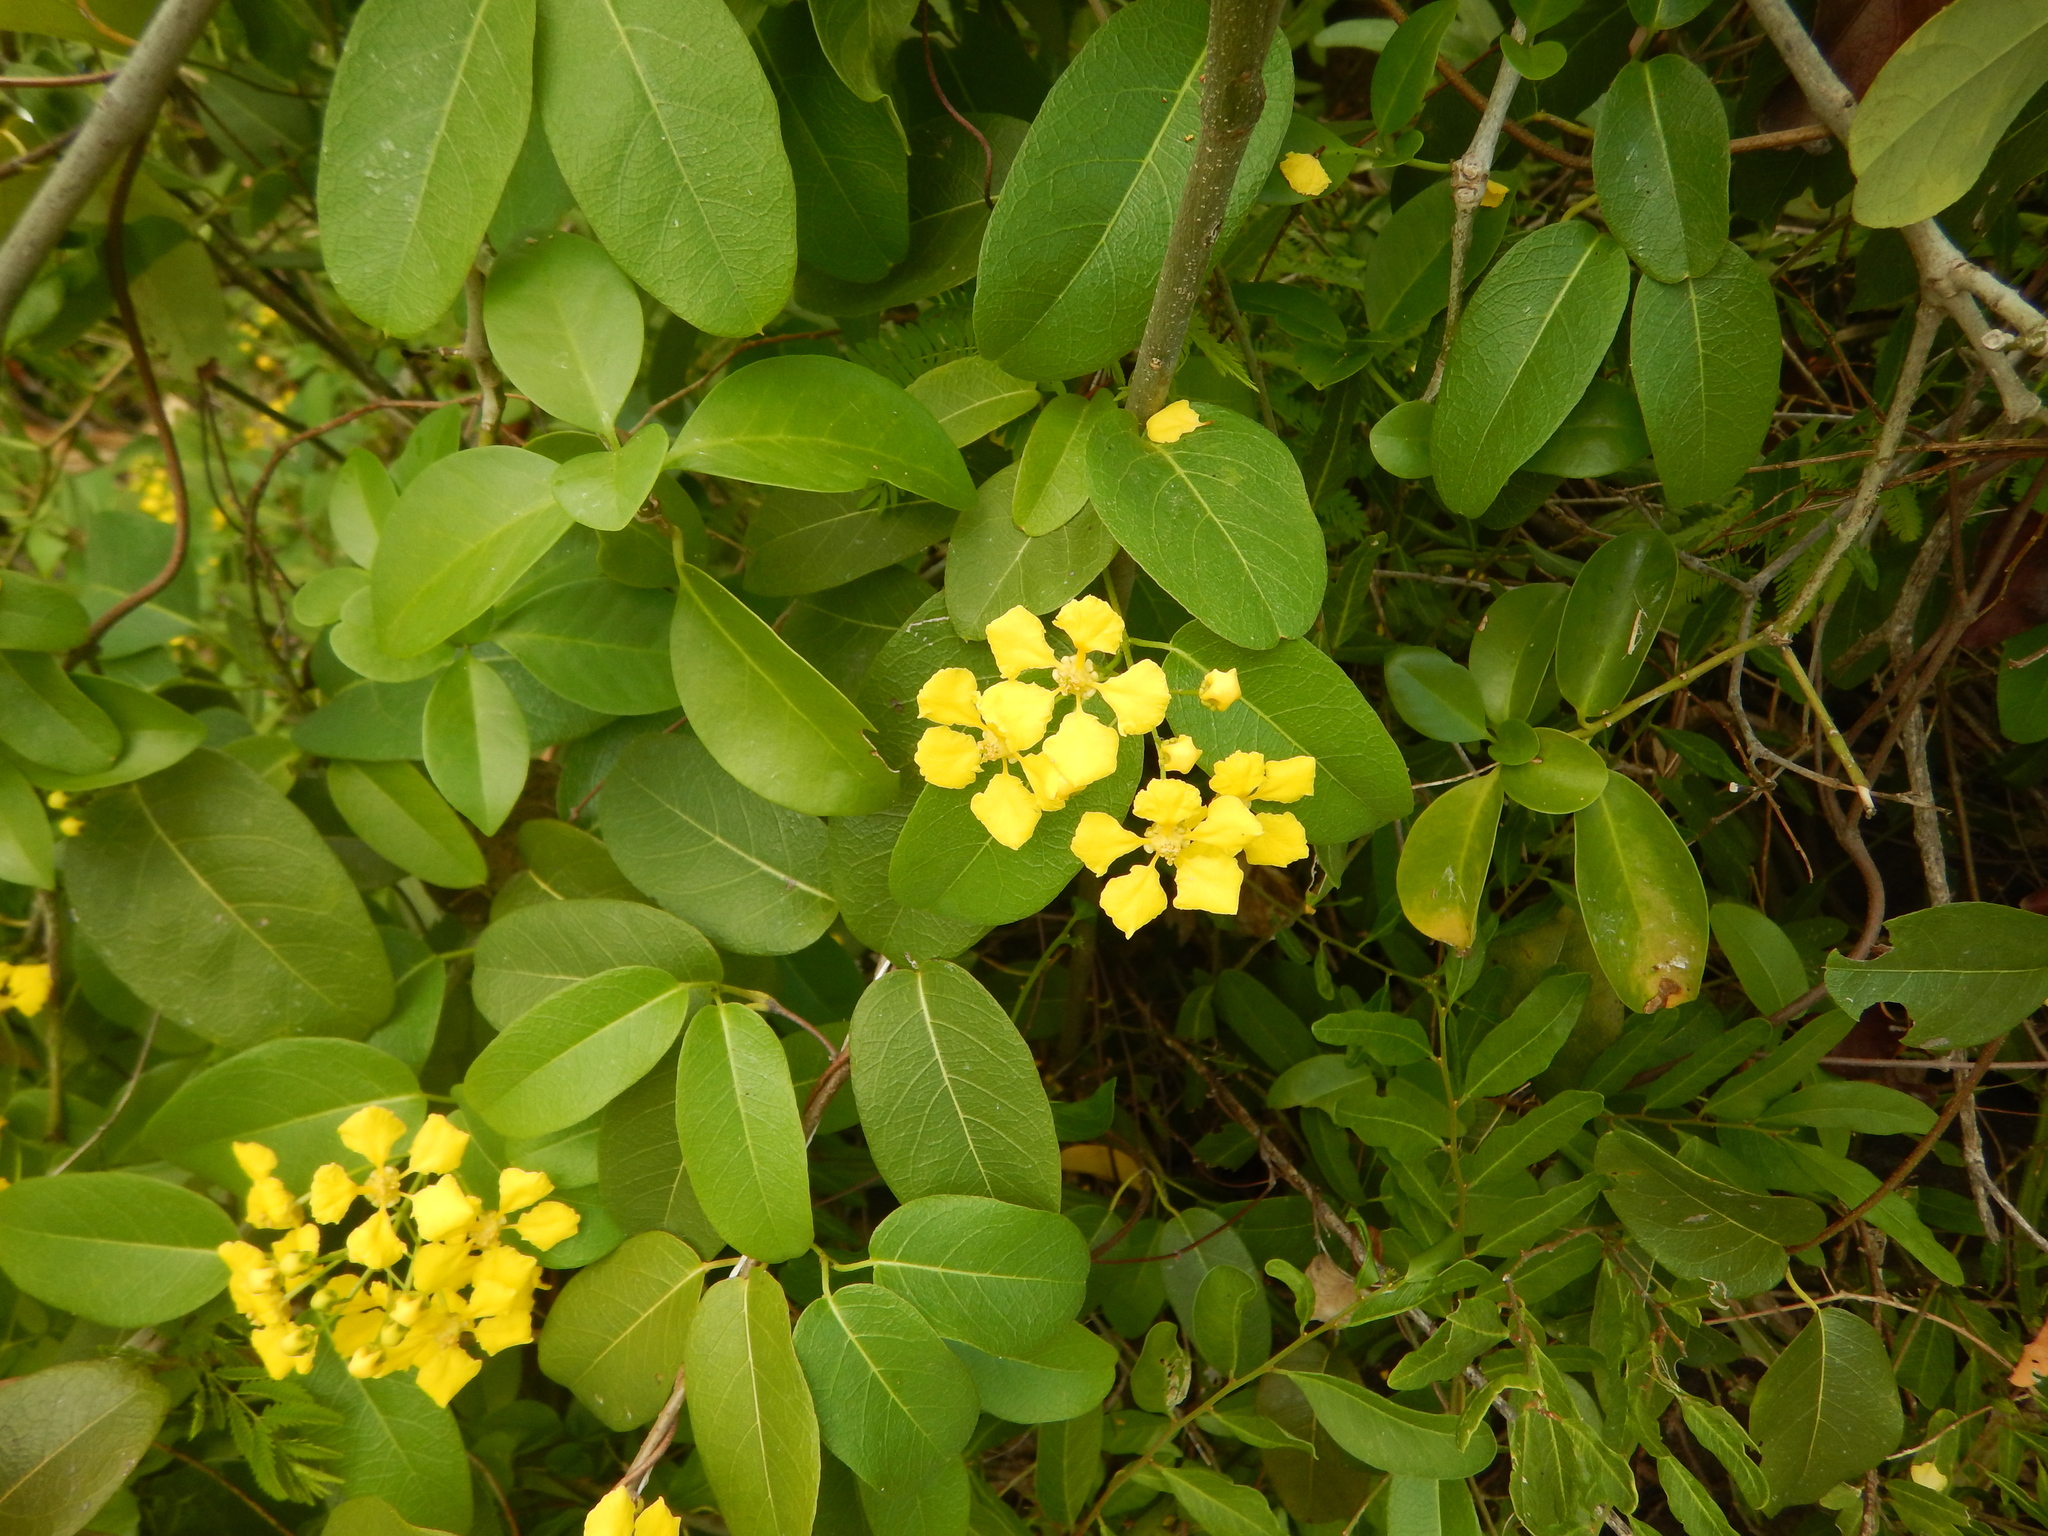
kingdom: Plantae
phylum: Tracheophyta
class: Magnoliopsida
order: Malpighiales
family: Malpighiaceae
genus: Stigmaphyllon
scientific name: Stigmaphyllon emarginatum
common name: Monarch amazonvine
